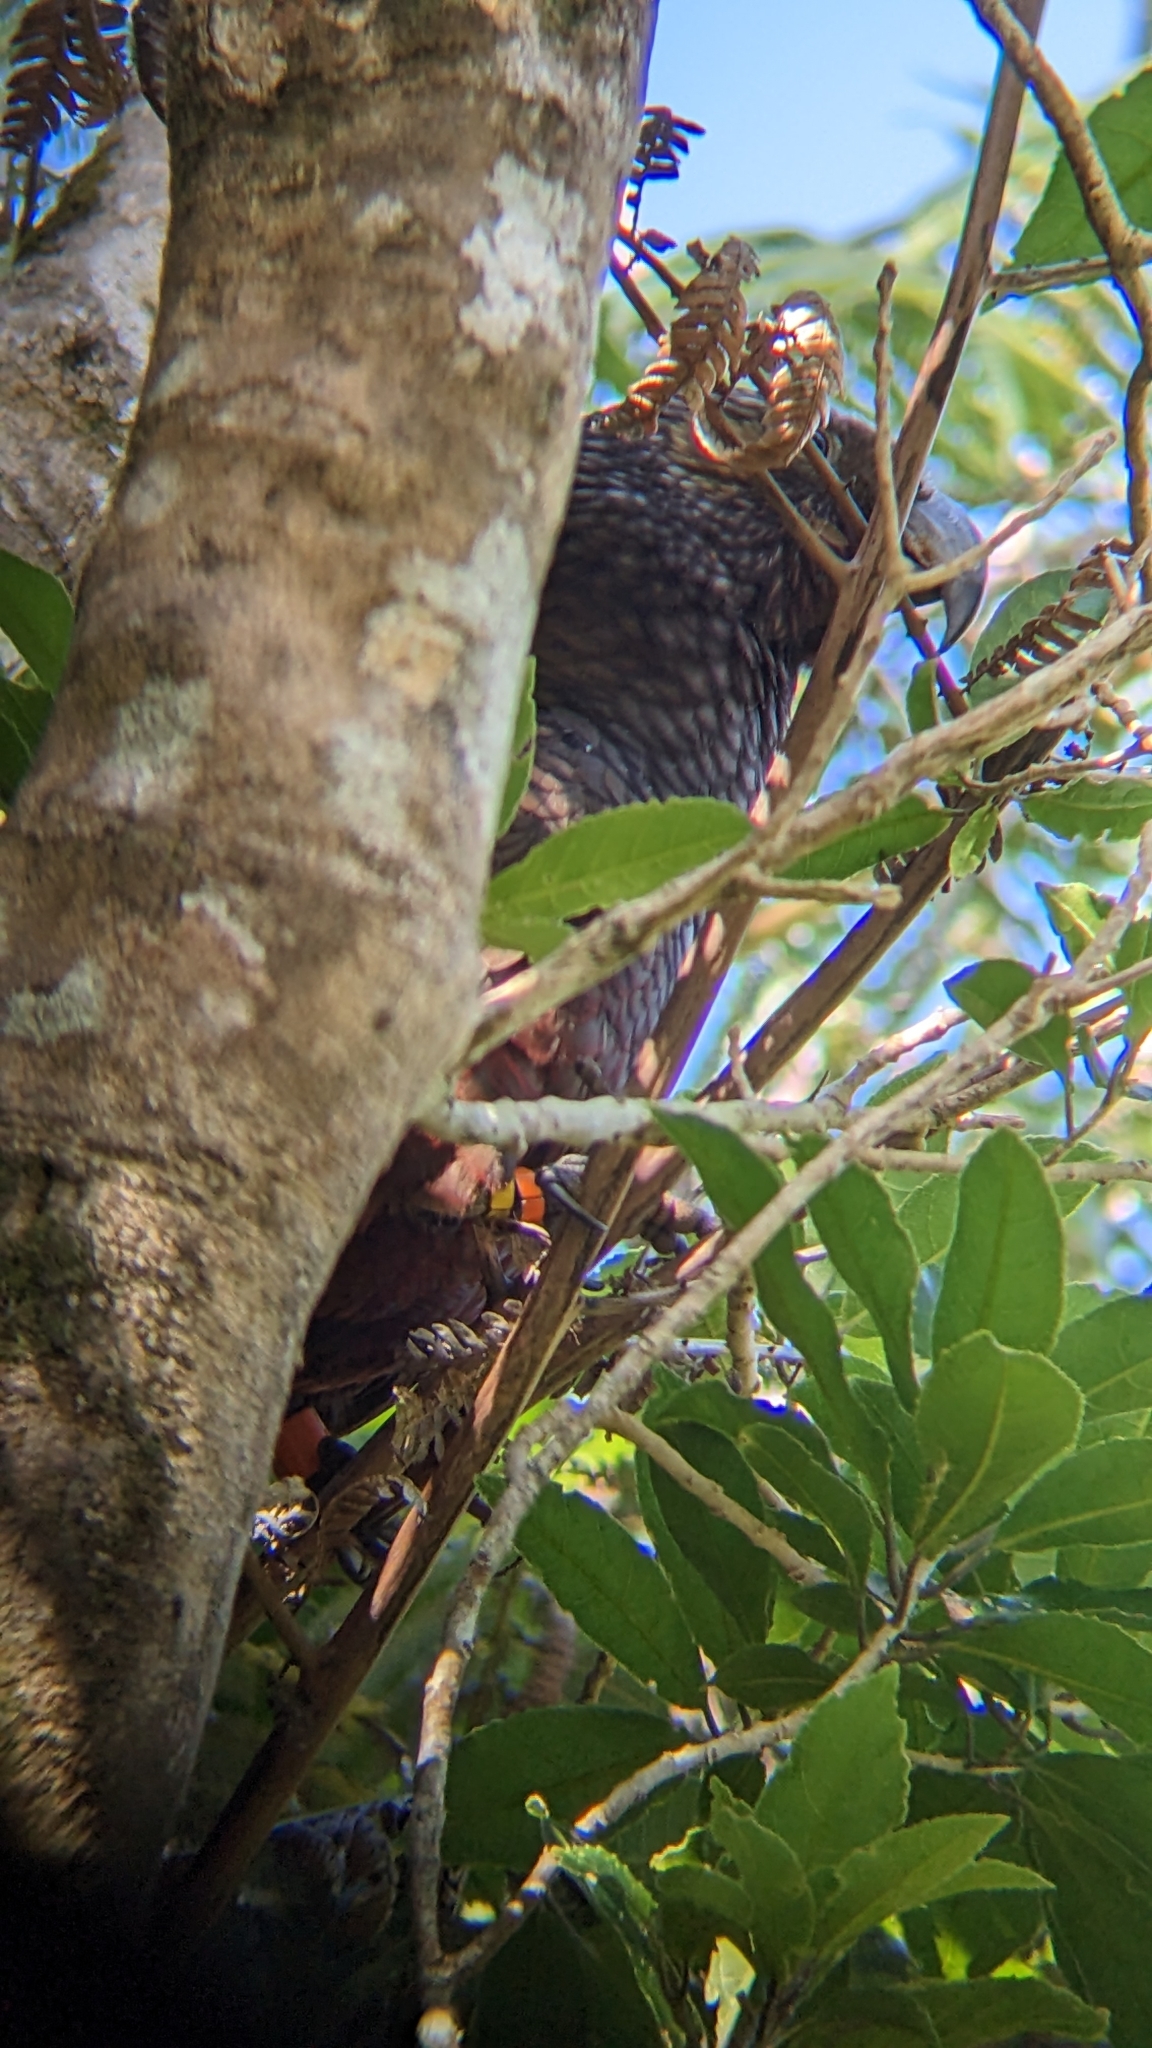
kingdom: Animalia
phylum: Chordata
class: Aves
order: Psittaciformes
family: Psittacidae
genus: Nestor
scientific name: Nestor meridionalis
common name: New zealand kaka
